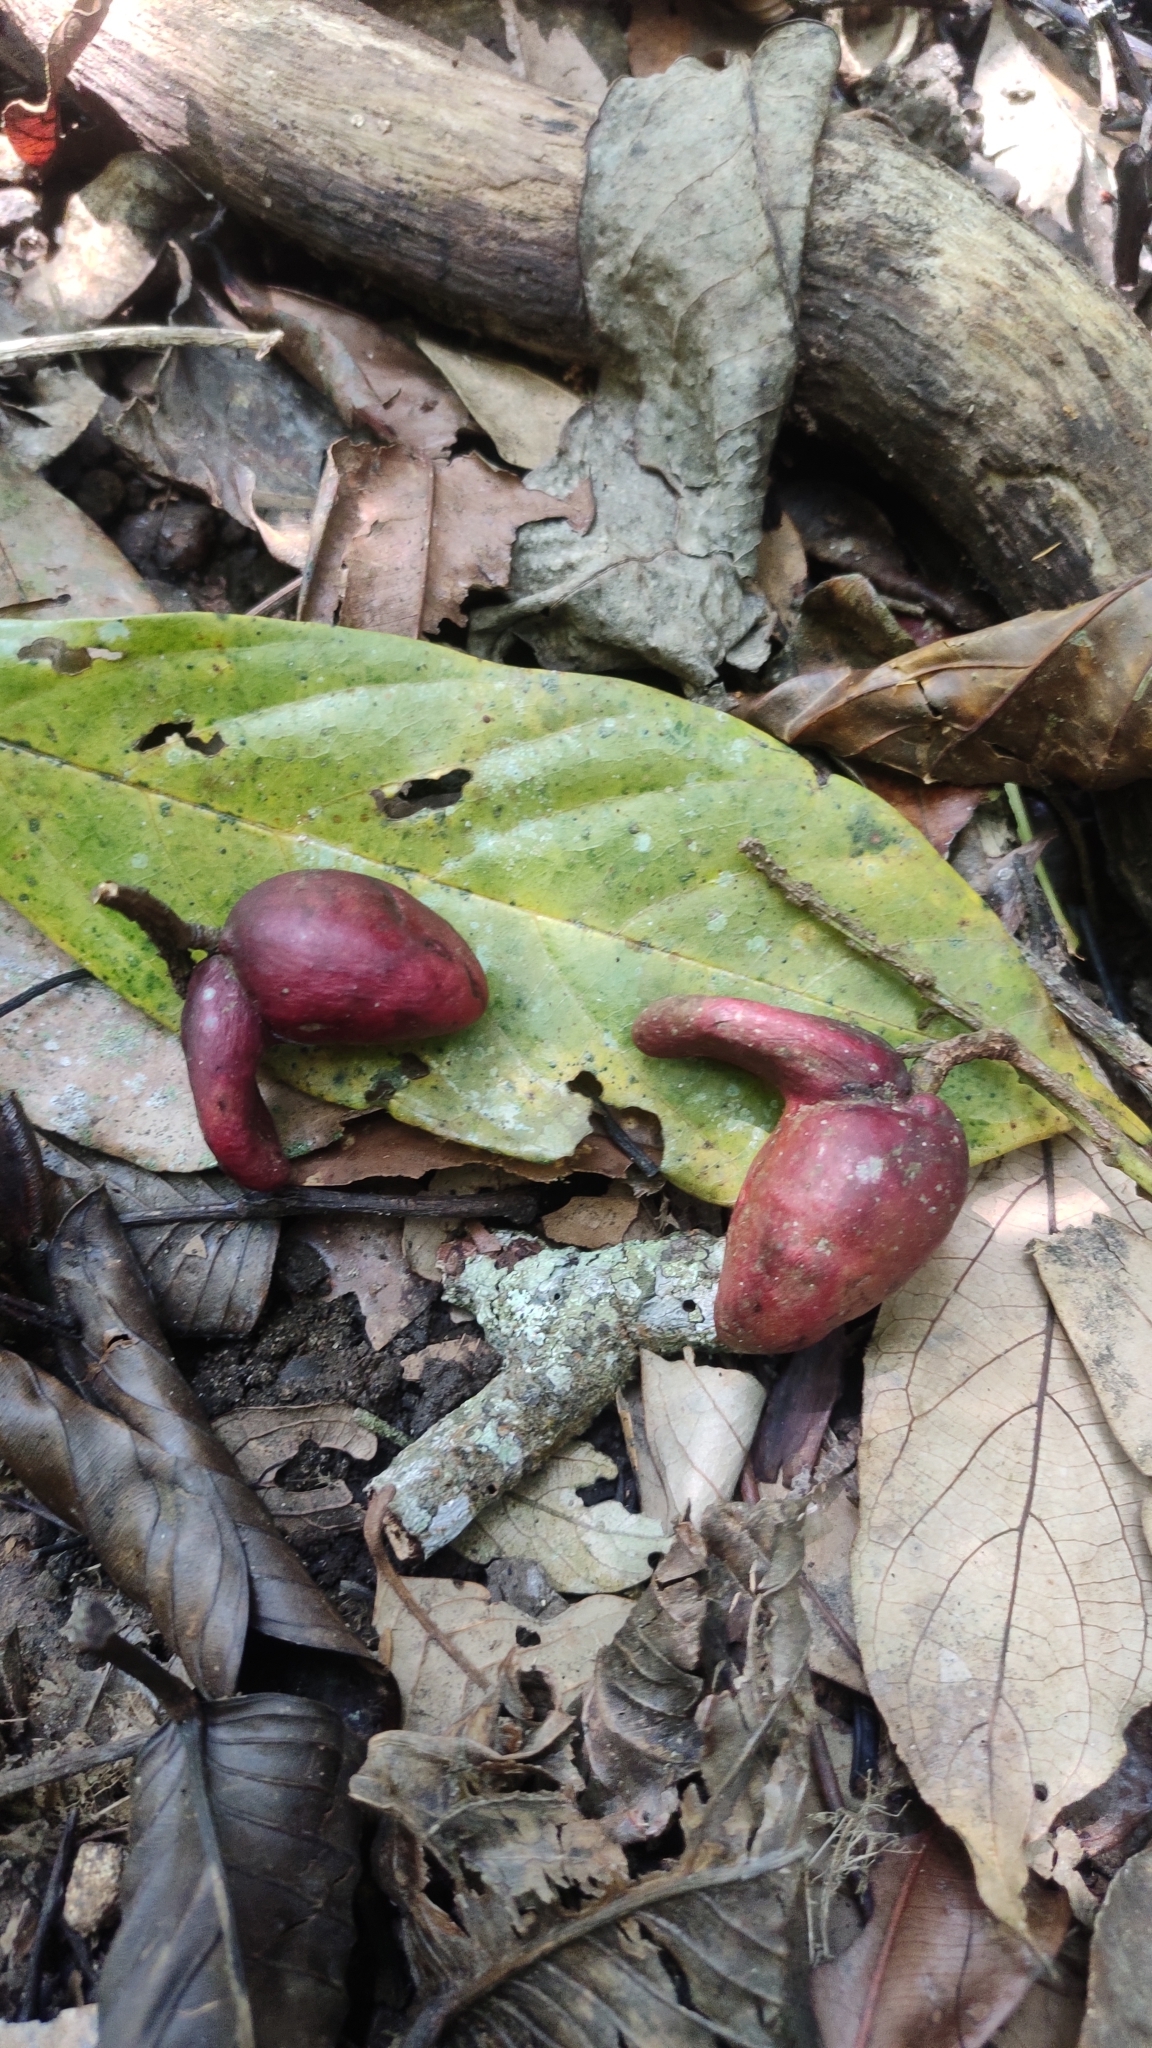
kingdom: Plantae
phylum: Tracheophyta
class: Magnoliopsida
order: Malpighiales
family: Centroplacaceae
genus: Bhesa
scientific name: Bhesa indica
